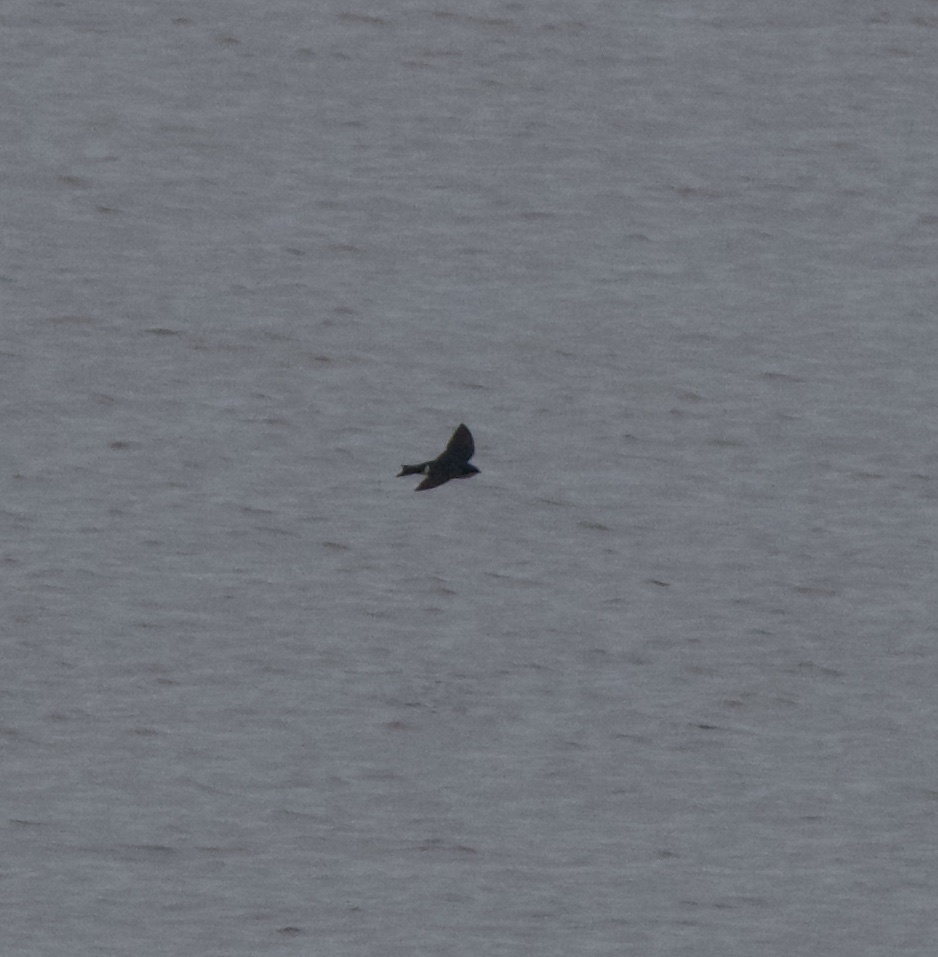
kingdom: Animalia
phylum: Chordata
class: Aves
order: Passeriformes
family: Hirundinidae
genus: Tachycineta
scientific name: Tachycineta bicolor
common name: Tree swallow
